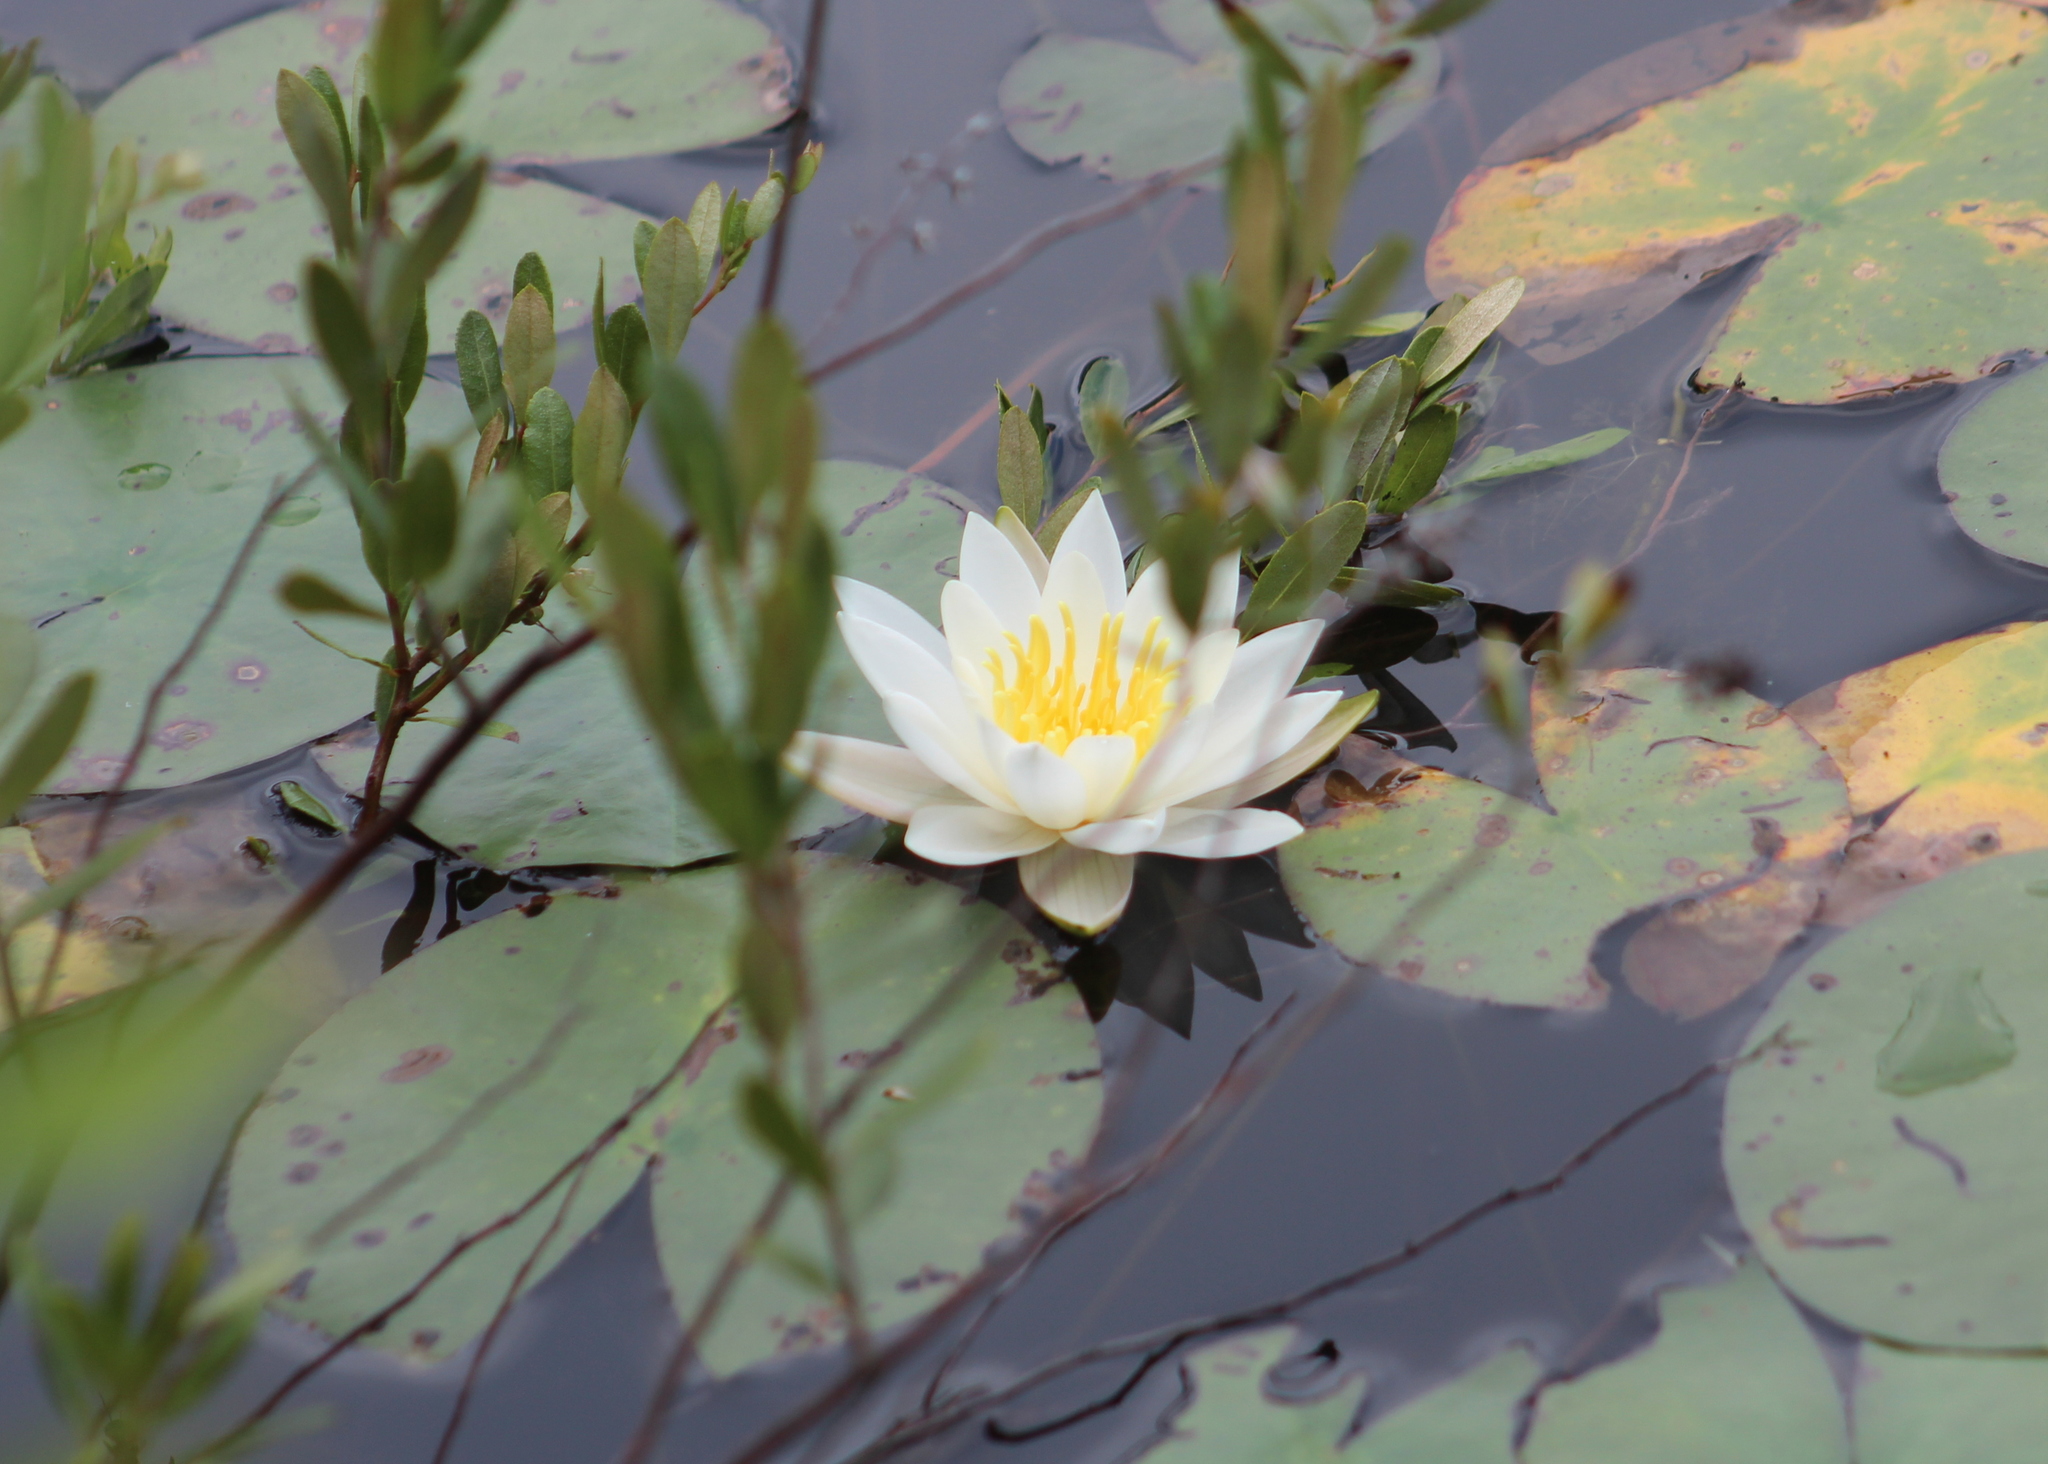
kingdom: Plantae
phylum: Tracheophyta
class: Magnoliopsida
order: Nymphaeales
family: Nymphaeaceae
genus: Nymphaea
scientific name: Nymphaea odorata
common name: Fragrant water-lily
